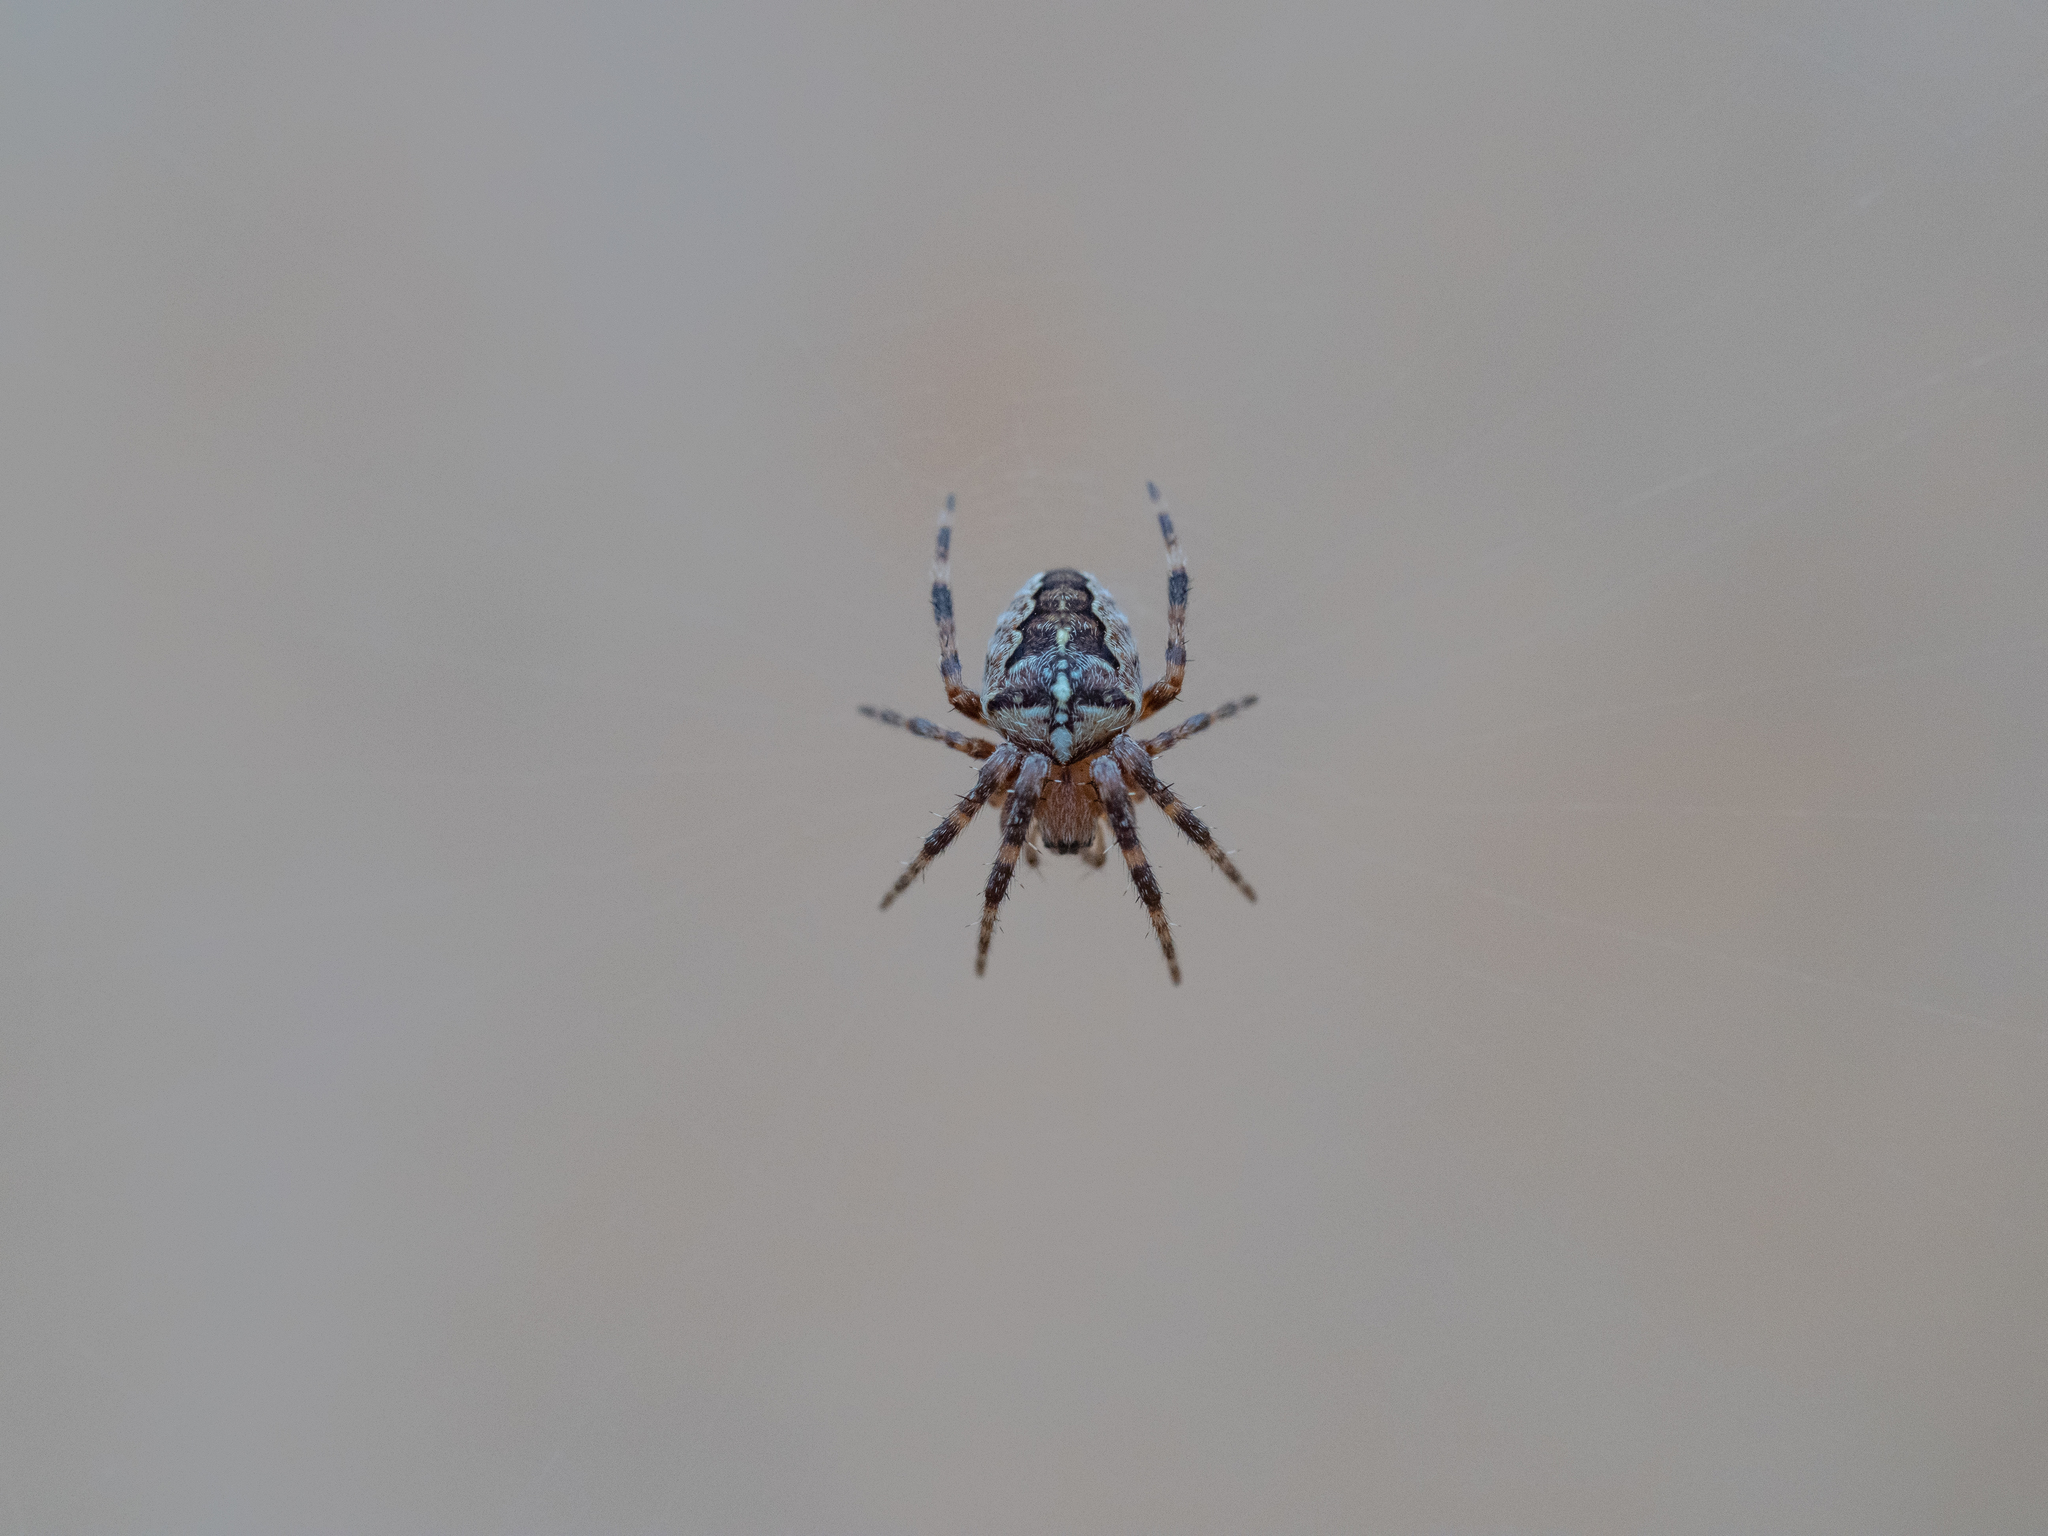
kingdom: Animalia
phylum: Arthropoda
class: Arachnida
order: Araneae
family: Araneidae
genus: Araneus
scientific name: Araneus diadematus
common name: Cross orbweaver
